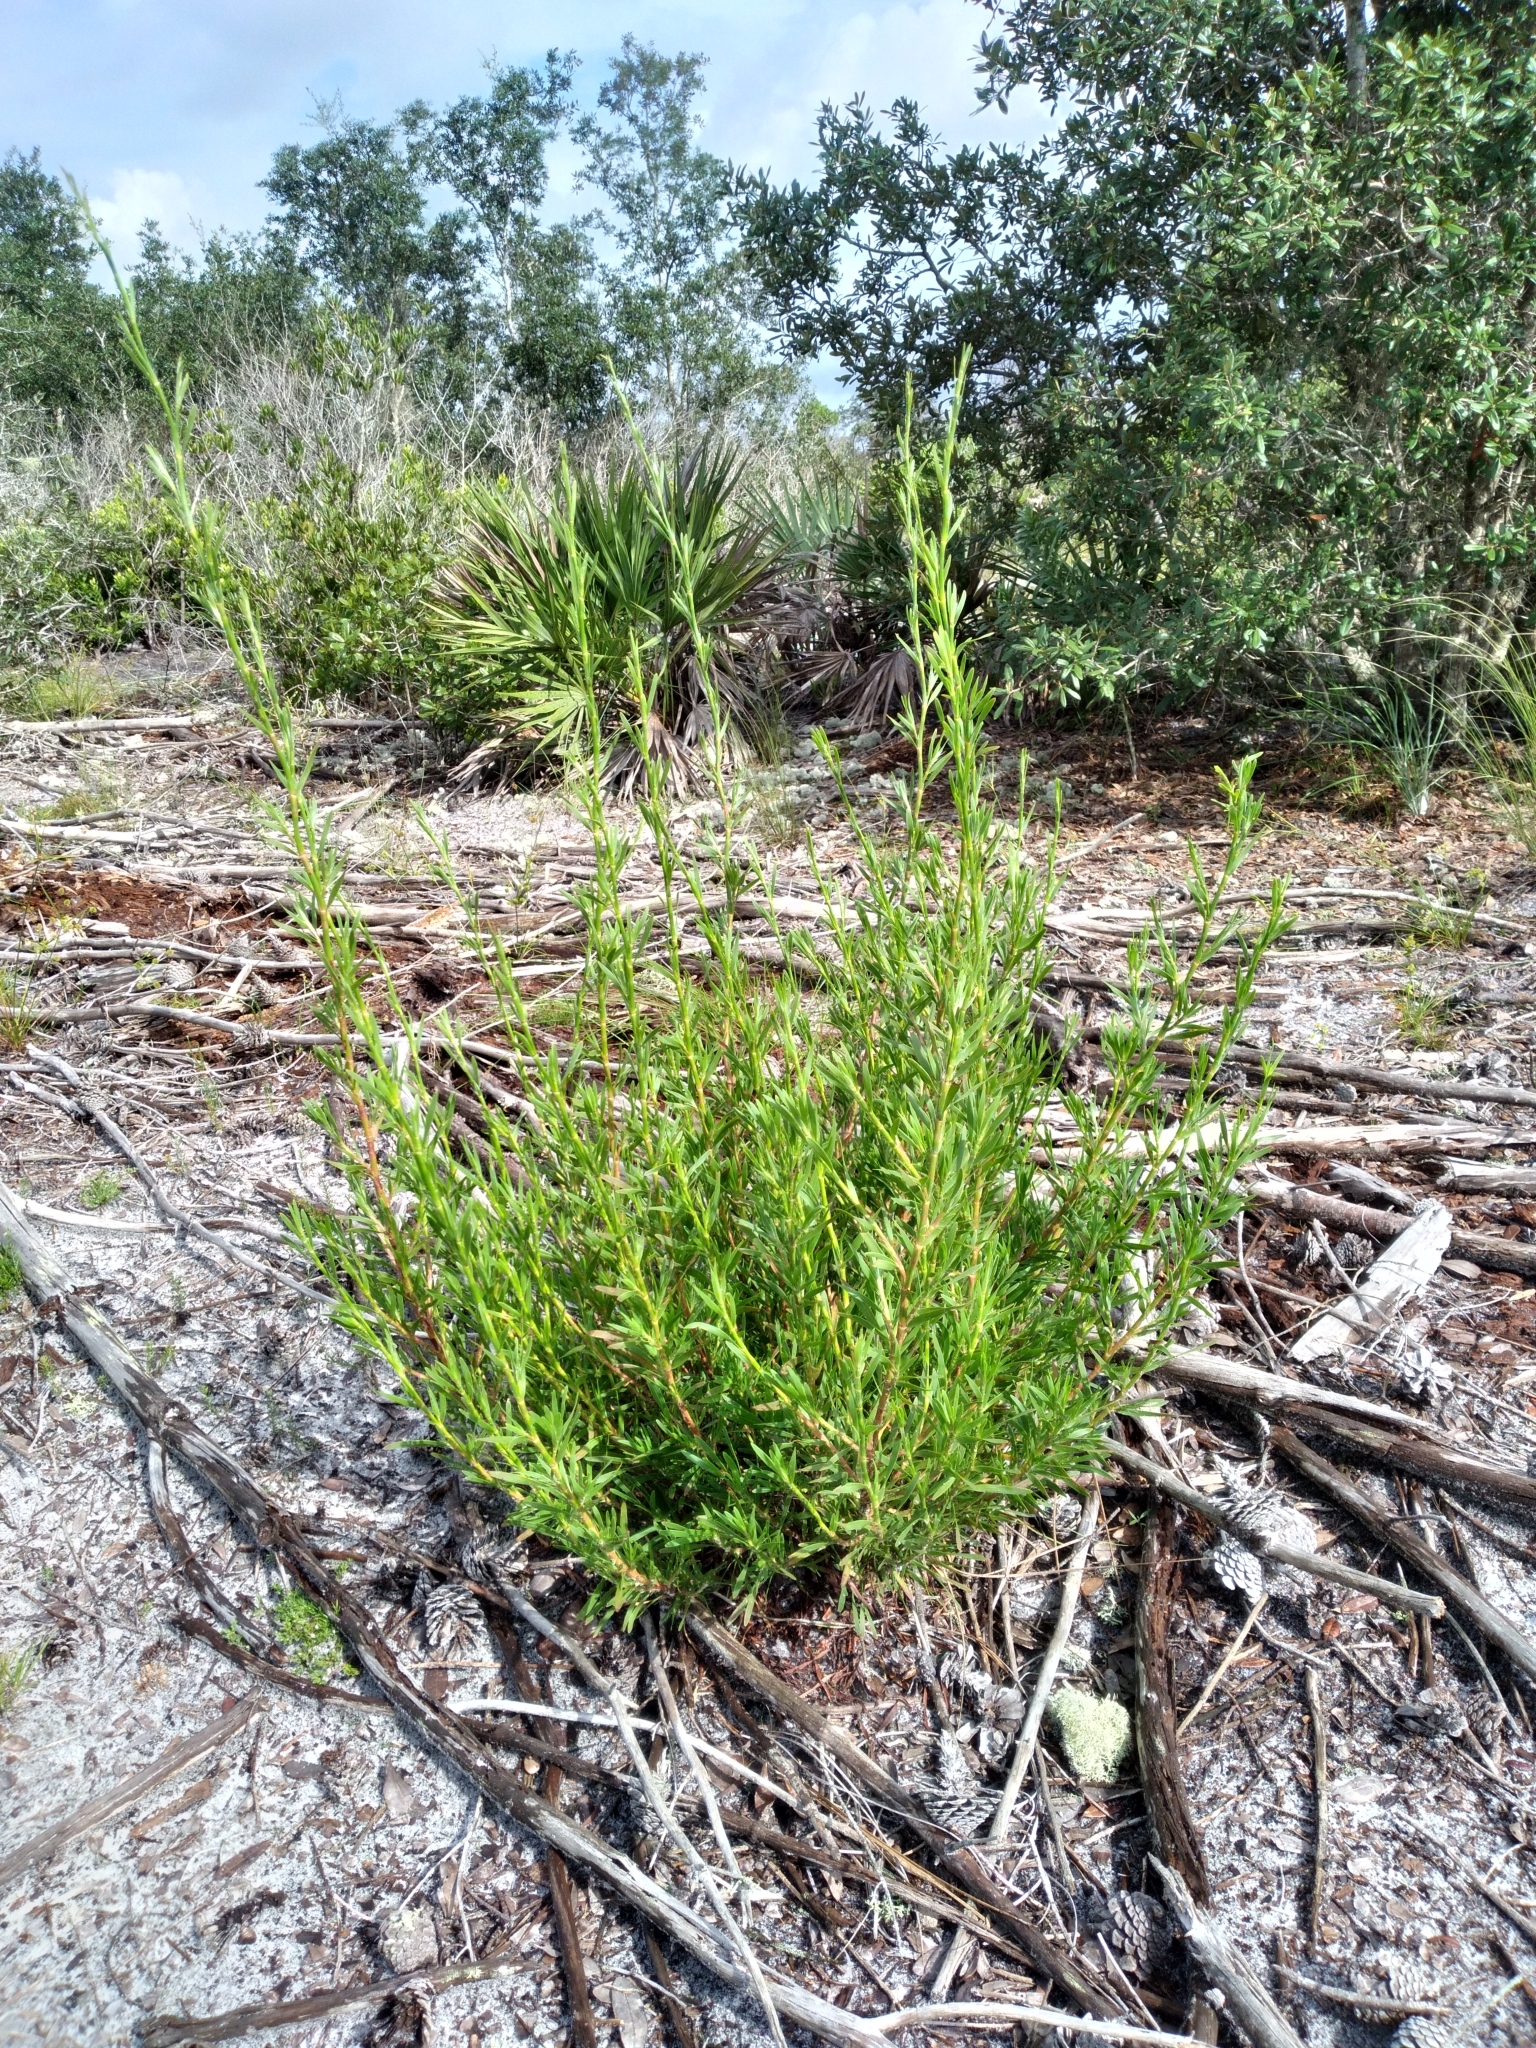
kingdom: Plantae
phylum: Tracheophyta
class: Magnoliopsida
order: Caryophyllales
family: Polygonaceae
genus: Polygonella
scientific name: Polygonella robusta
